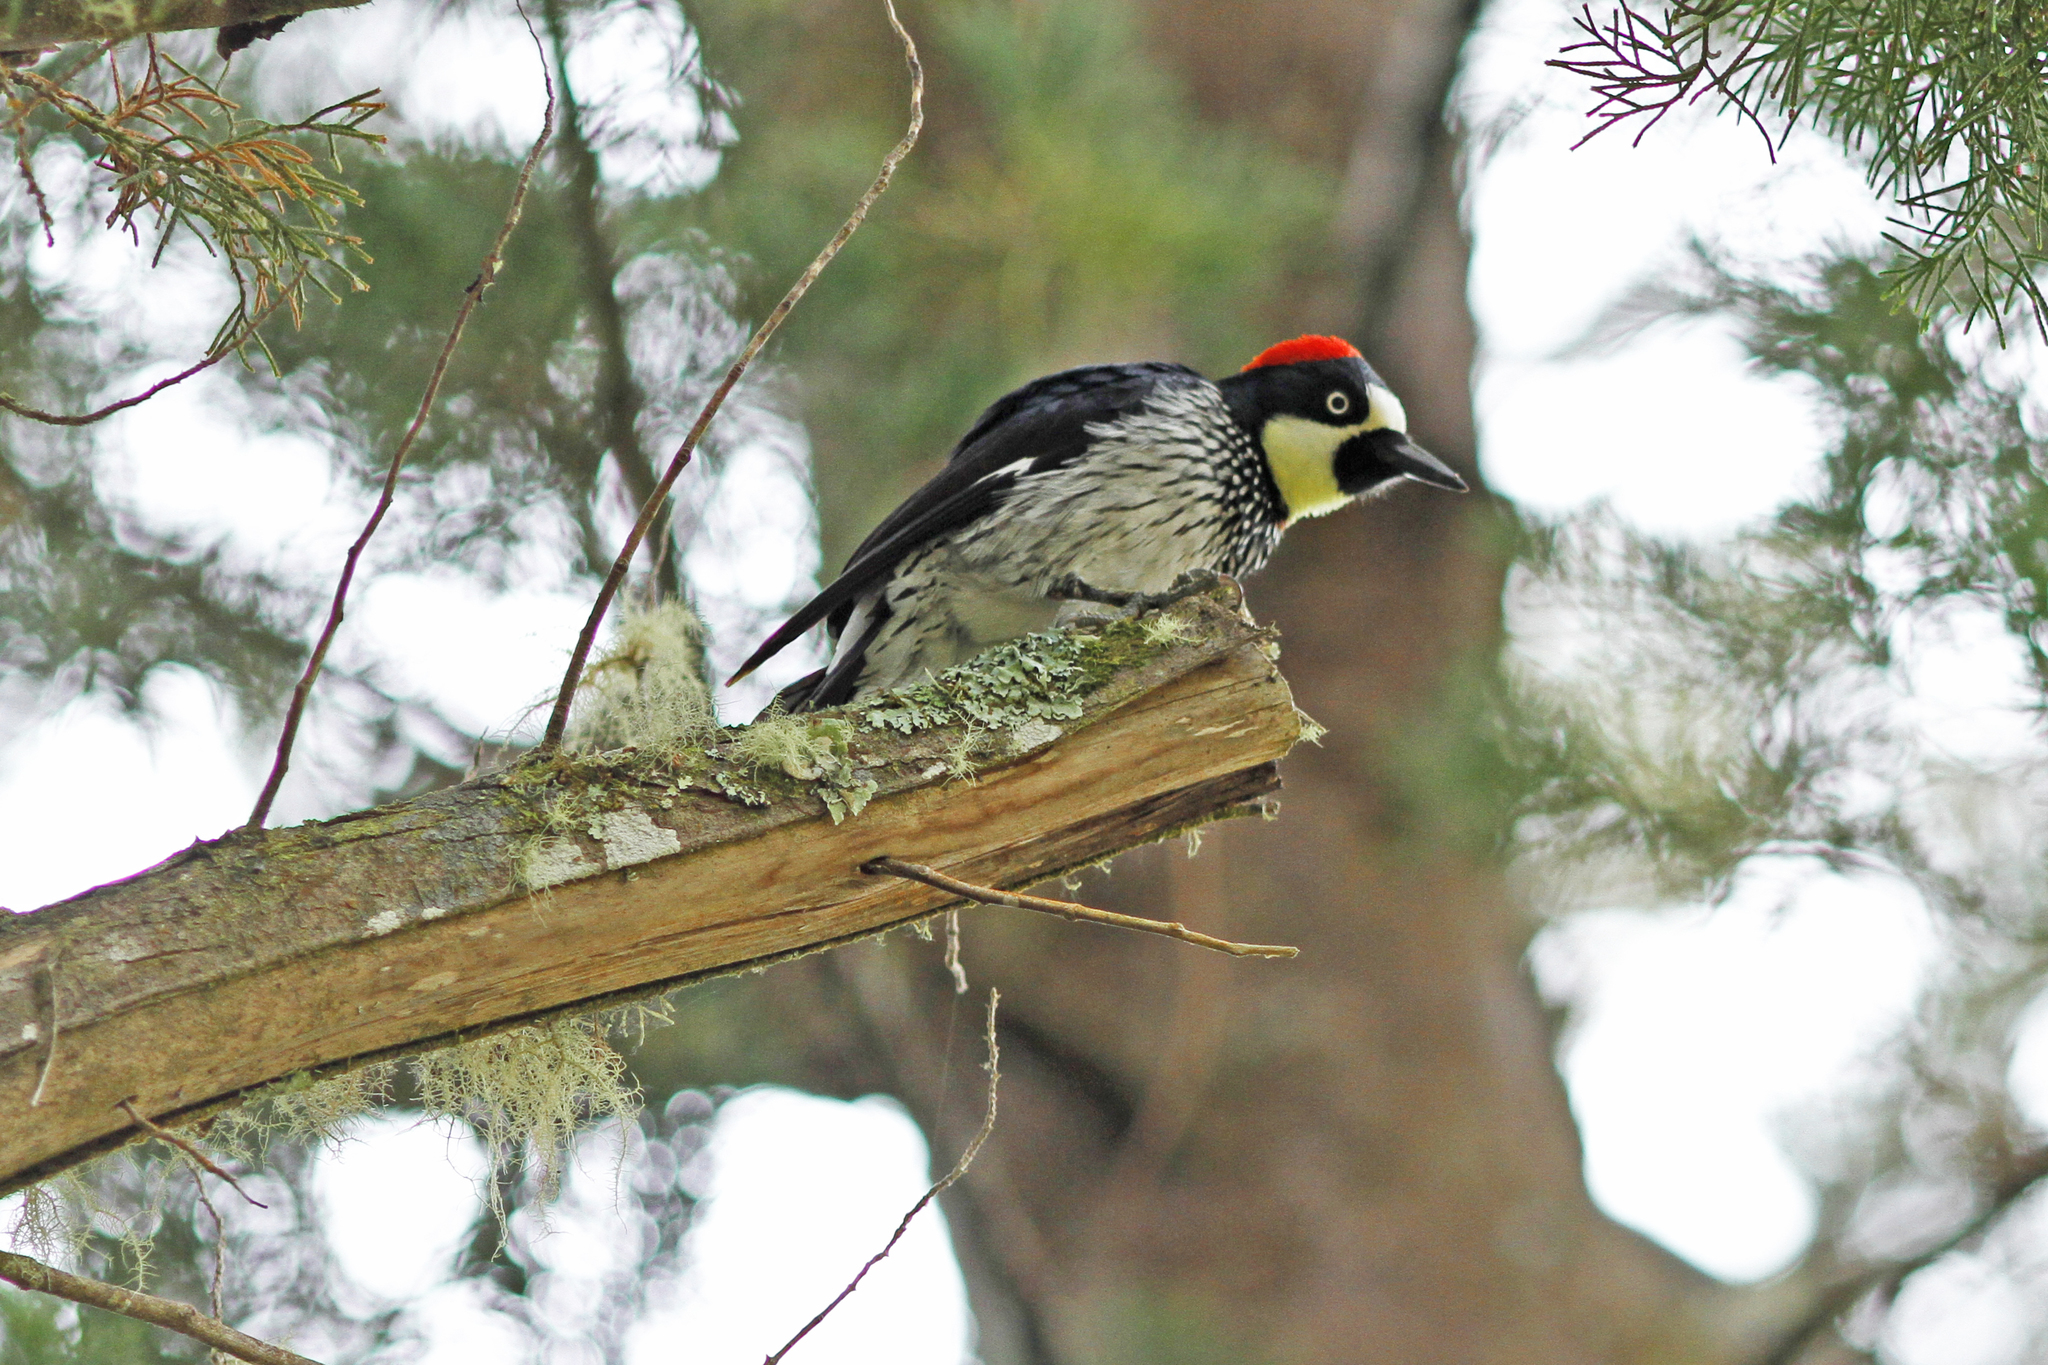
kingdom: Animalia
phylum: Chordata
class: Aves
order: Piciformes
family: Picidae
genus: Melanerpes
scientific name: Melanerpes formicivorus
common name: Acorn woodpecker
